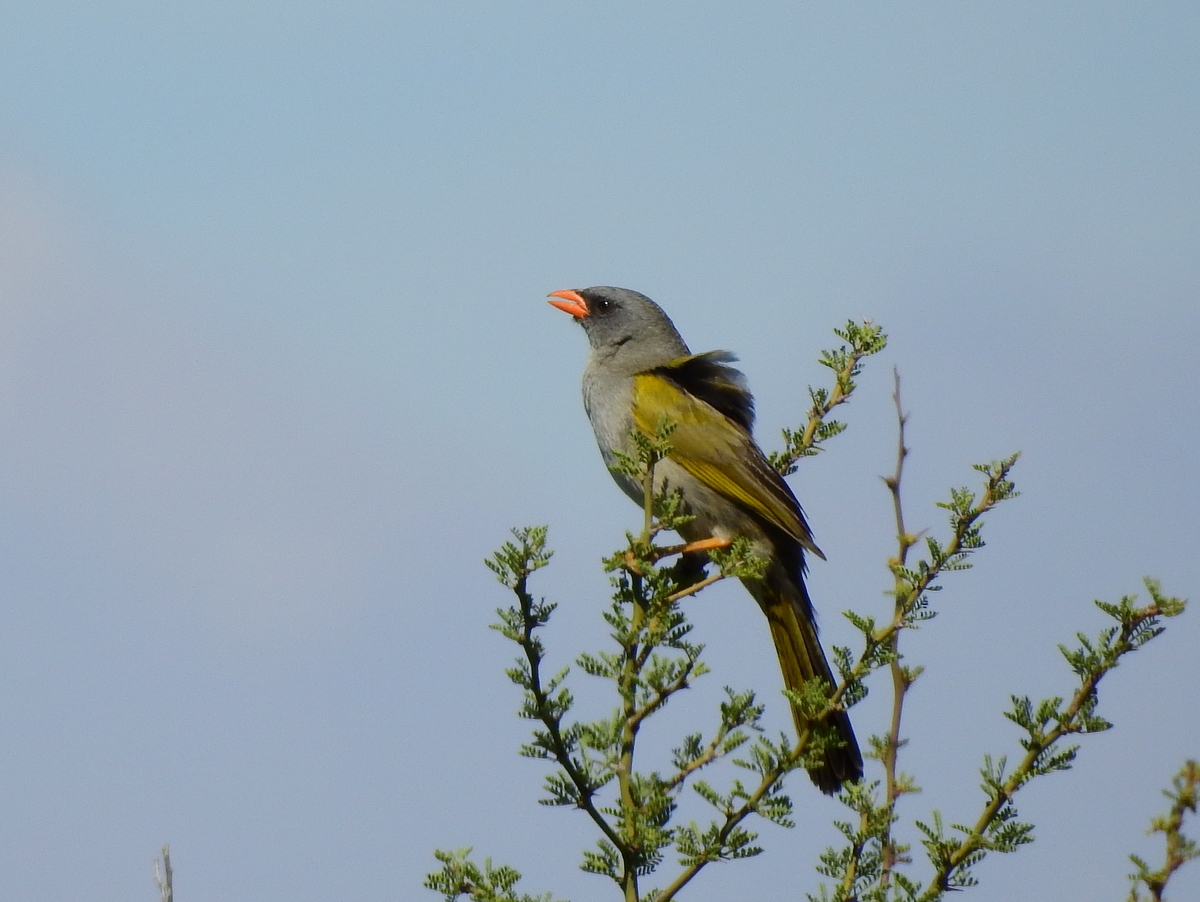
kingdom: Animalia
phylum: Chordata
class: Aves
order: Passeriformes
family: Thraupidae
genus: Embernagra
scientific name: Embernagra platensis
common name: Pampa finch
